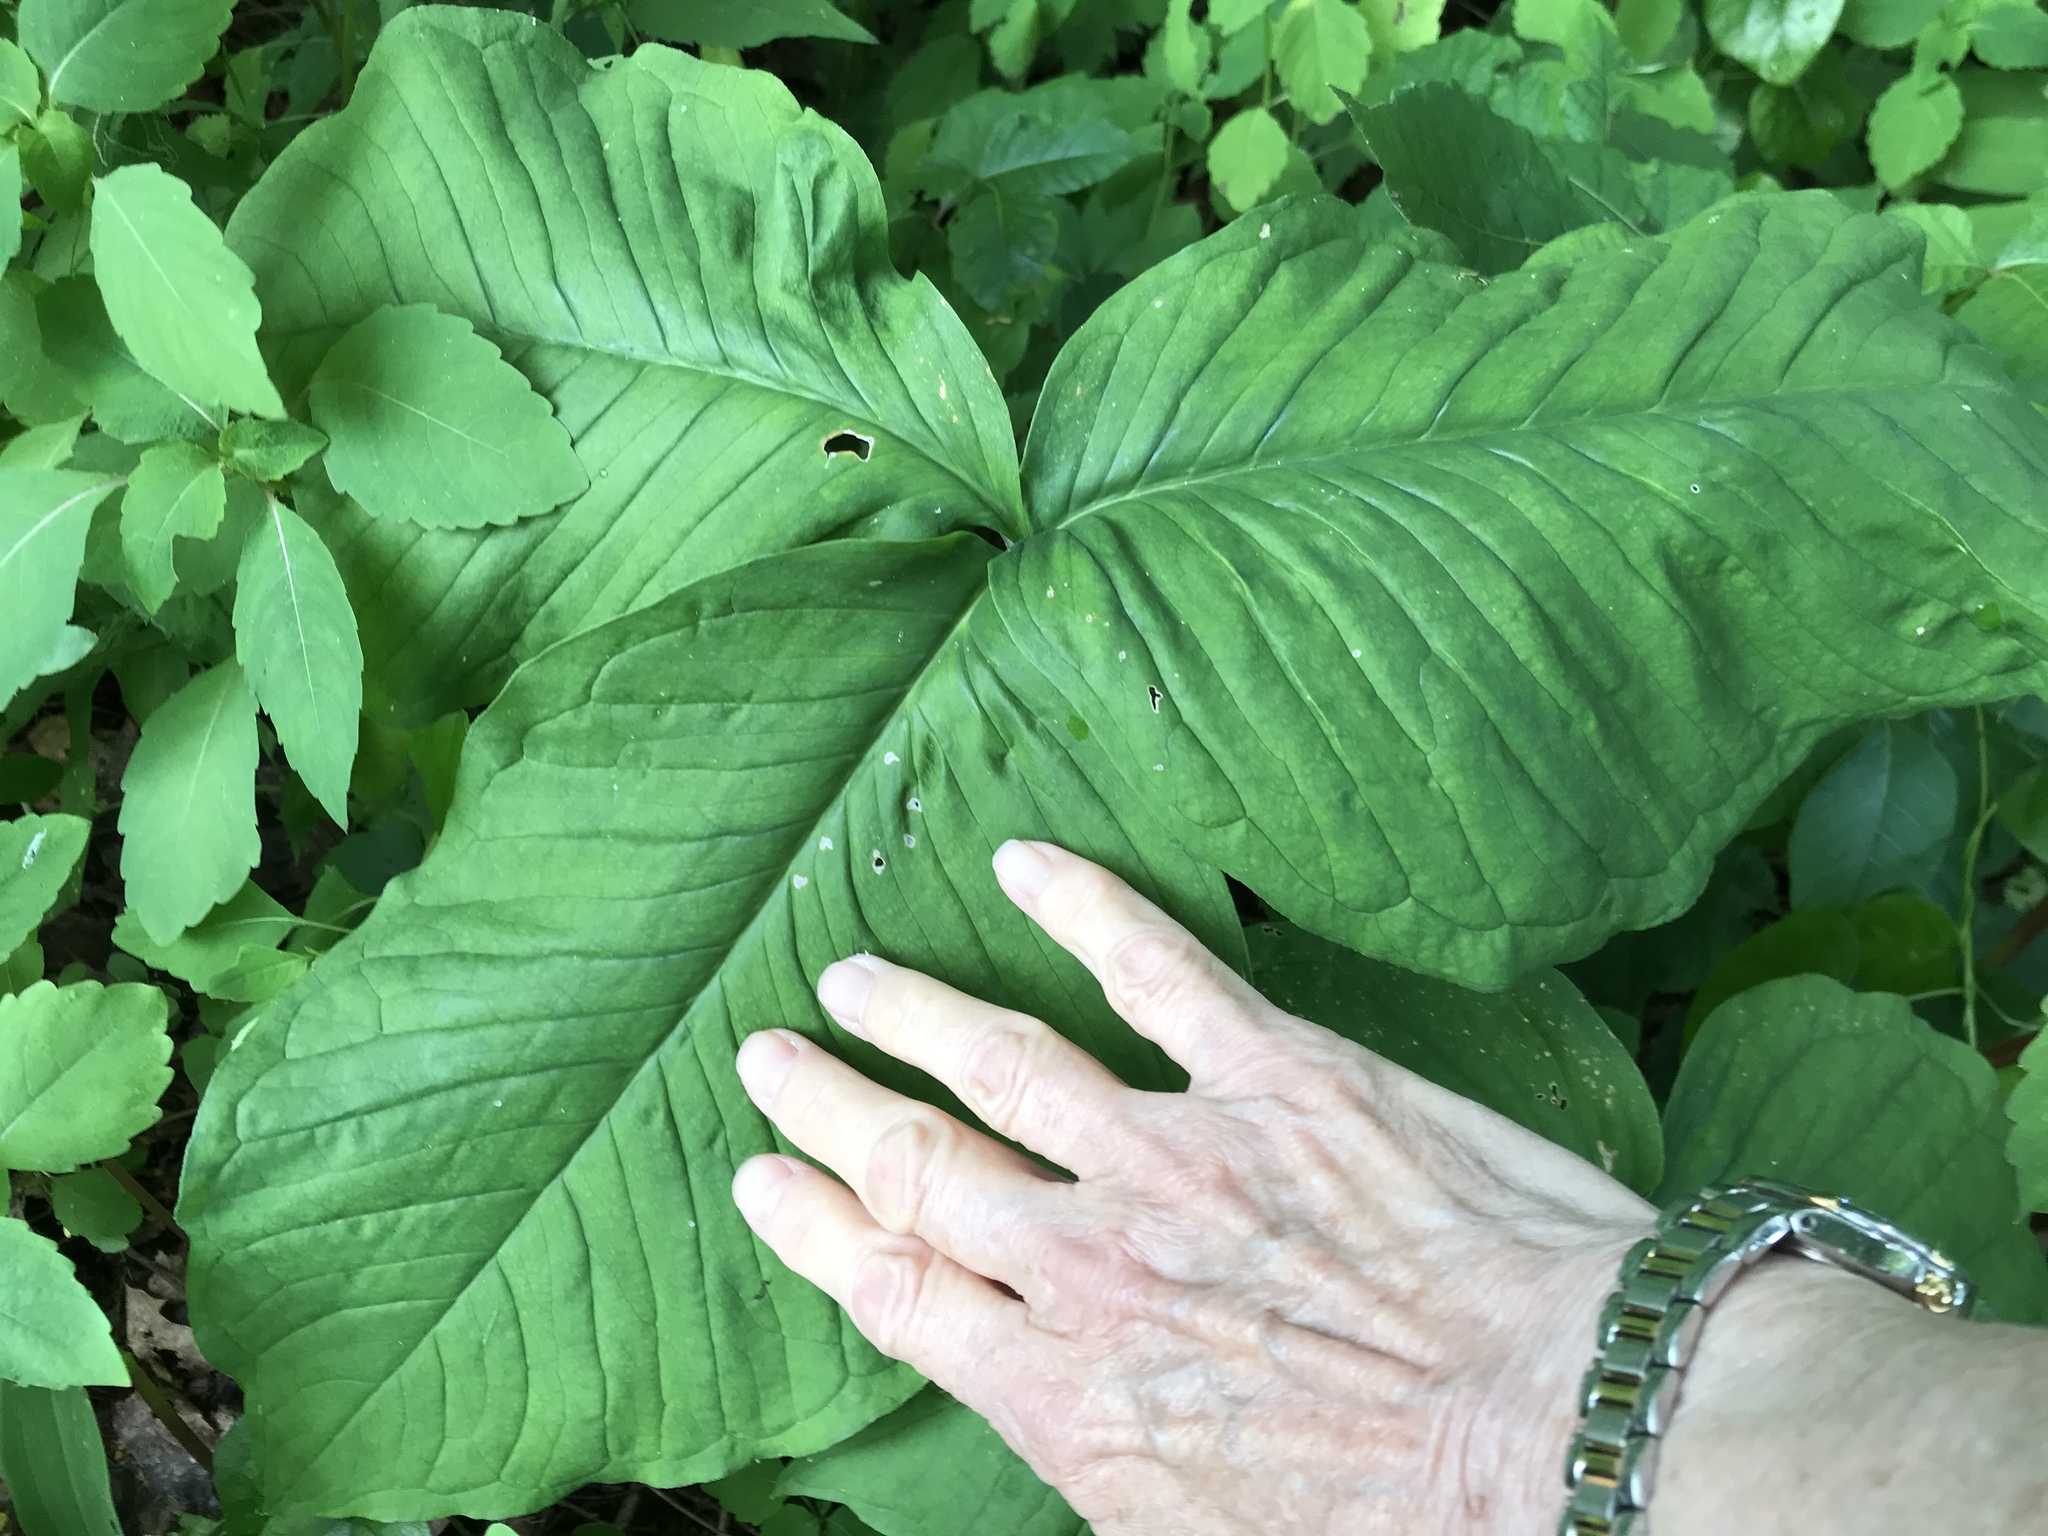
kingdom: Plantae
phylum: Tracheophyta
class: Liliopsida
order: Alismatales
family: Araceae
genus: Arisaema
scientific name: Arisaema triphyllum
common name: Jack-in-the-pulpit
